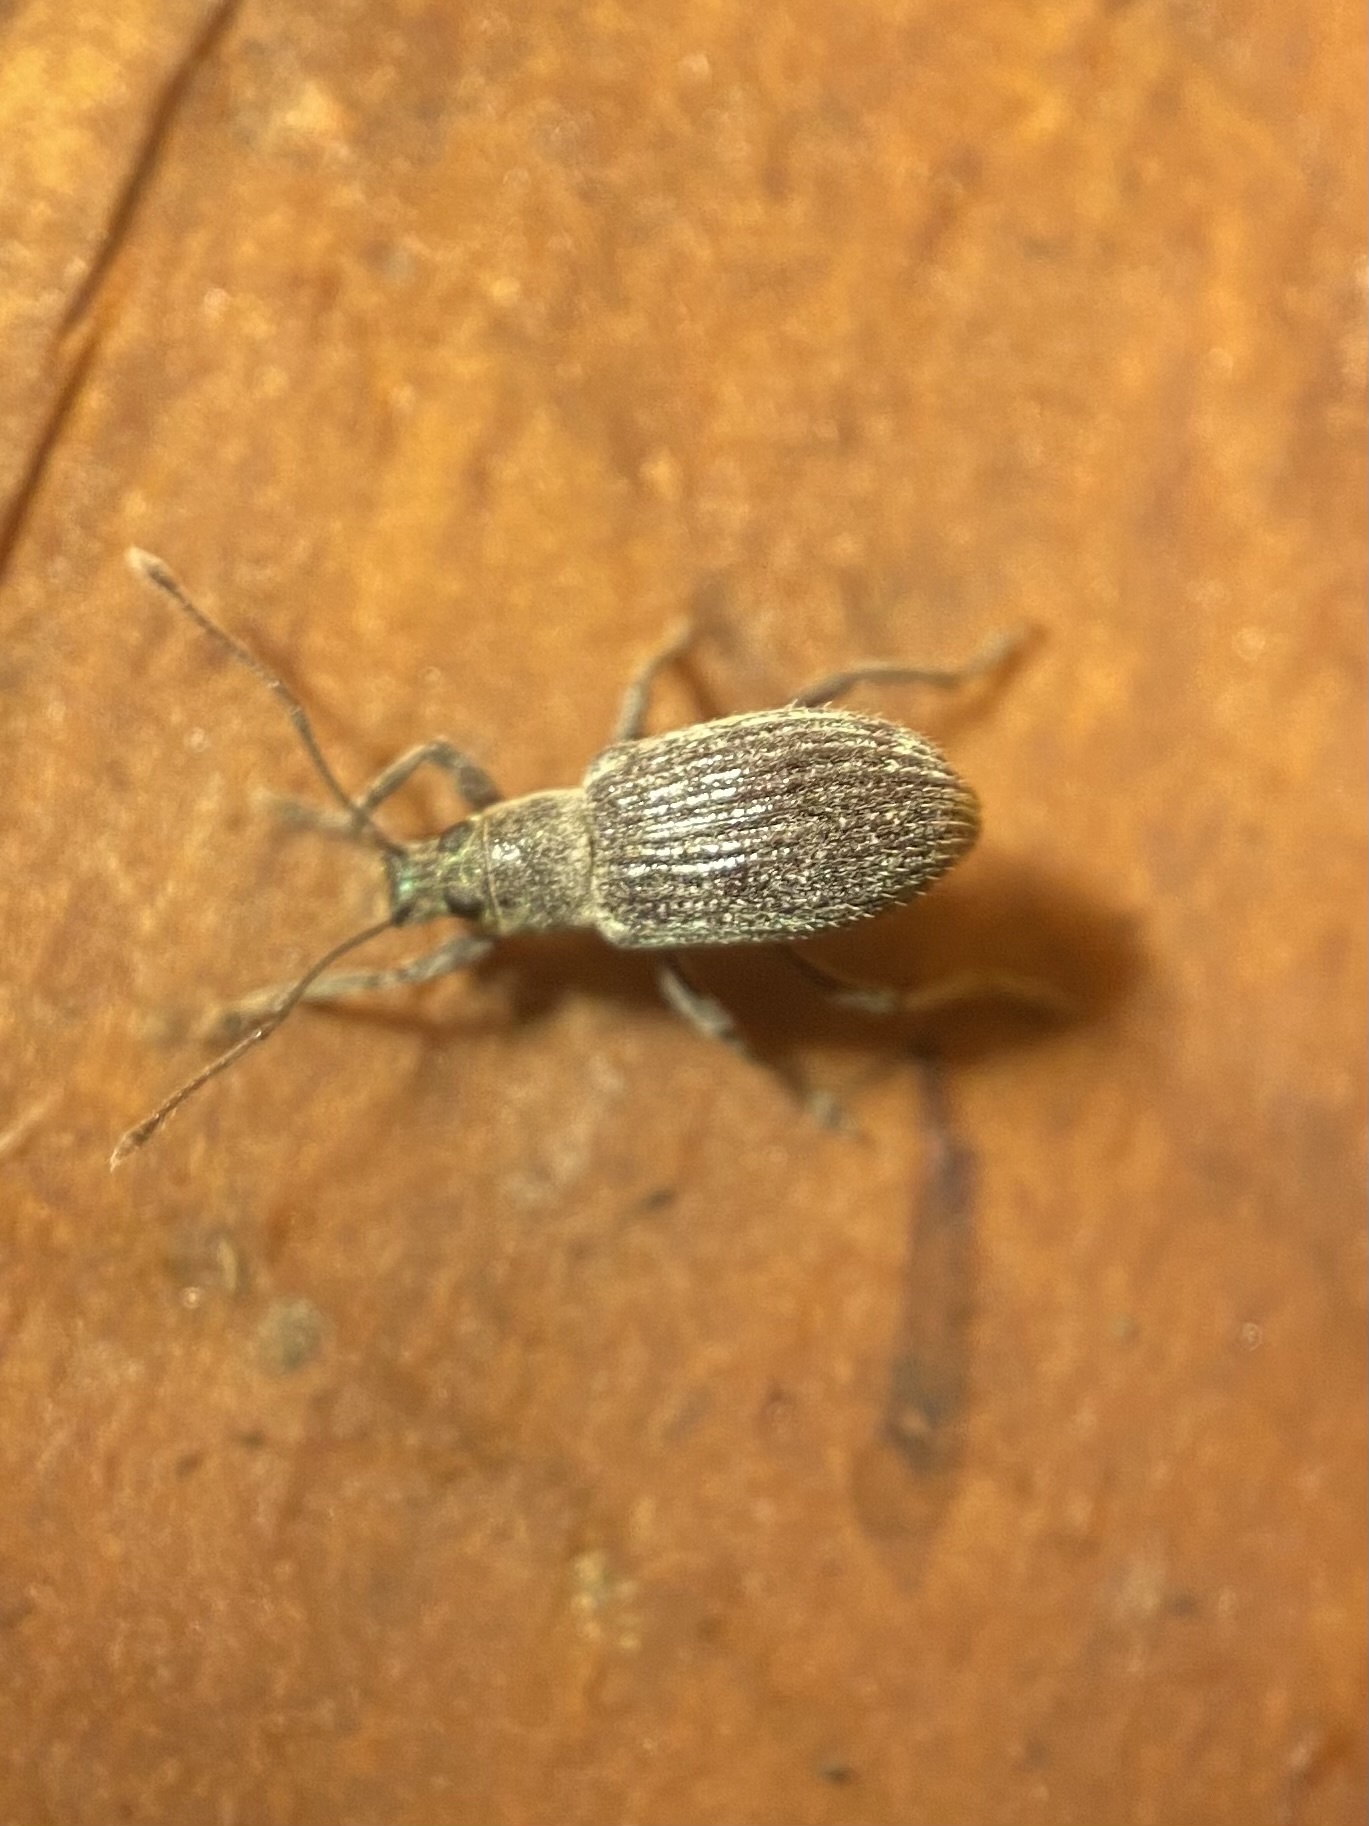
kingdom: Animalia
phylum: Arthropoda
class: Insecta
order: Coleoptera
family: Curculionidae
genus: Cyrtepistomus
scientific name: Cyrtepistomus castaneus
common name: Weevil
